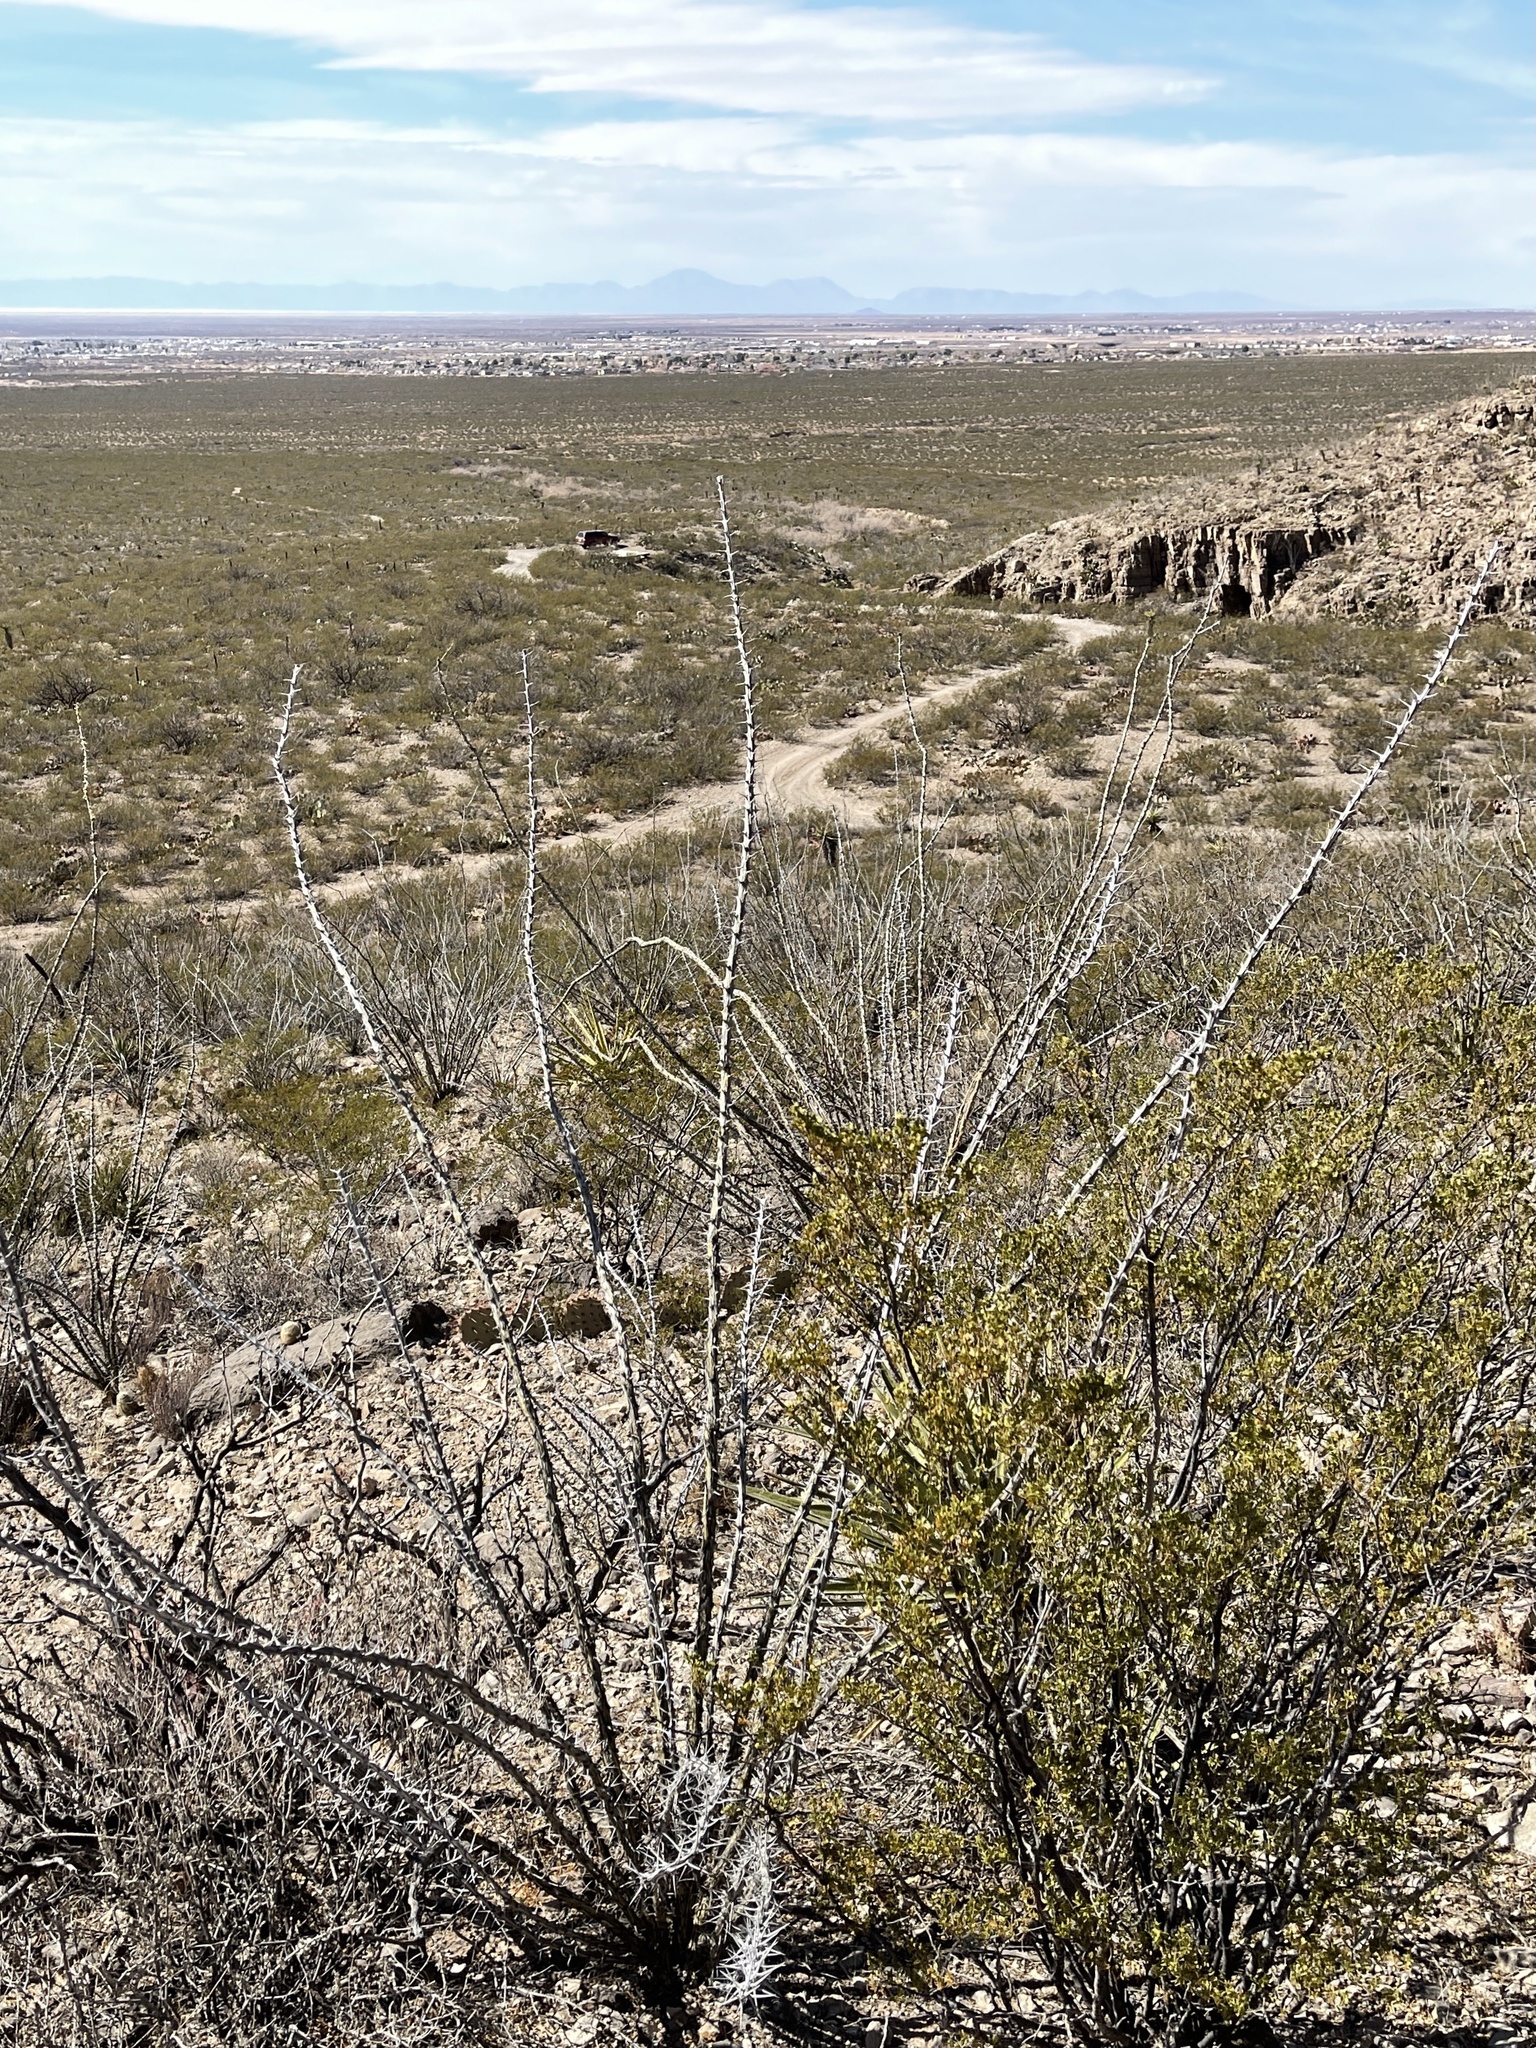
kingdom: Plantae
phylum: Tracheophyta
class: Magnoliopsida
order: Ericales
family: Fouquieriaceae
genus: Fouquieria
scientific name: Fouquieria splendens
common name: Vine-cactus
